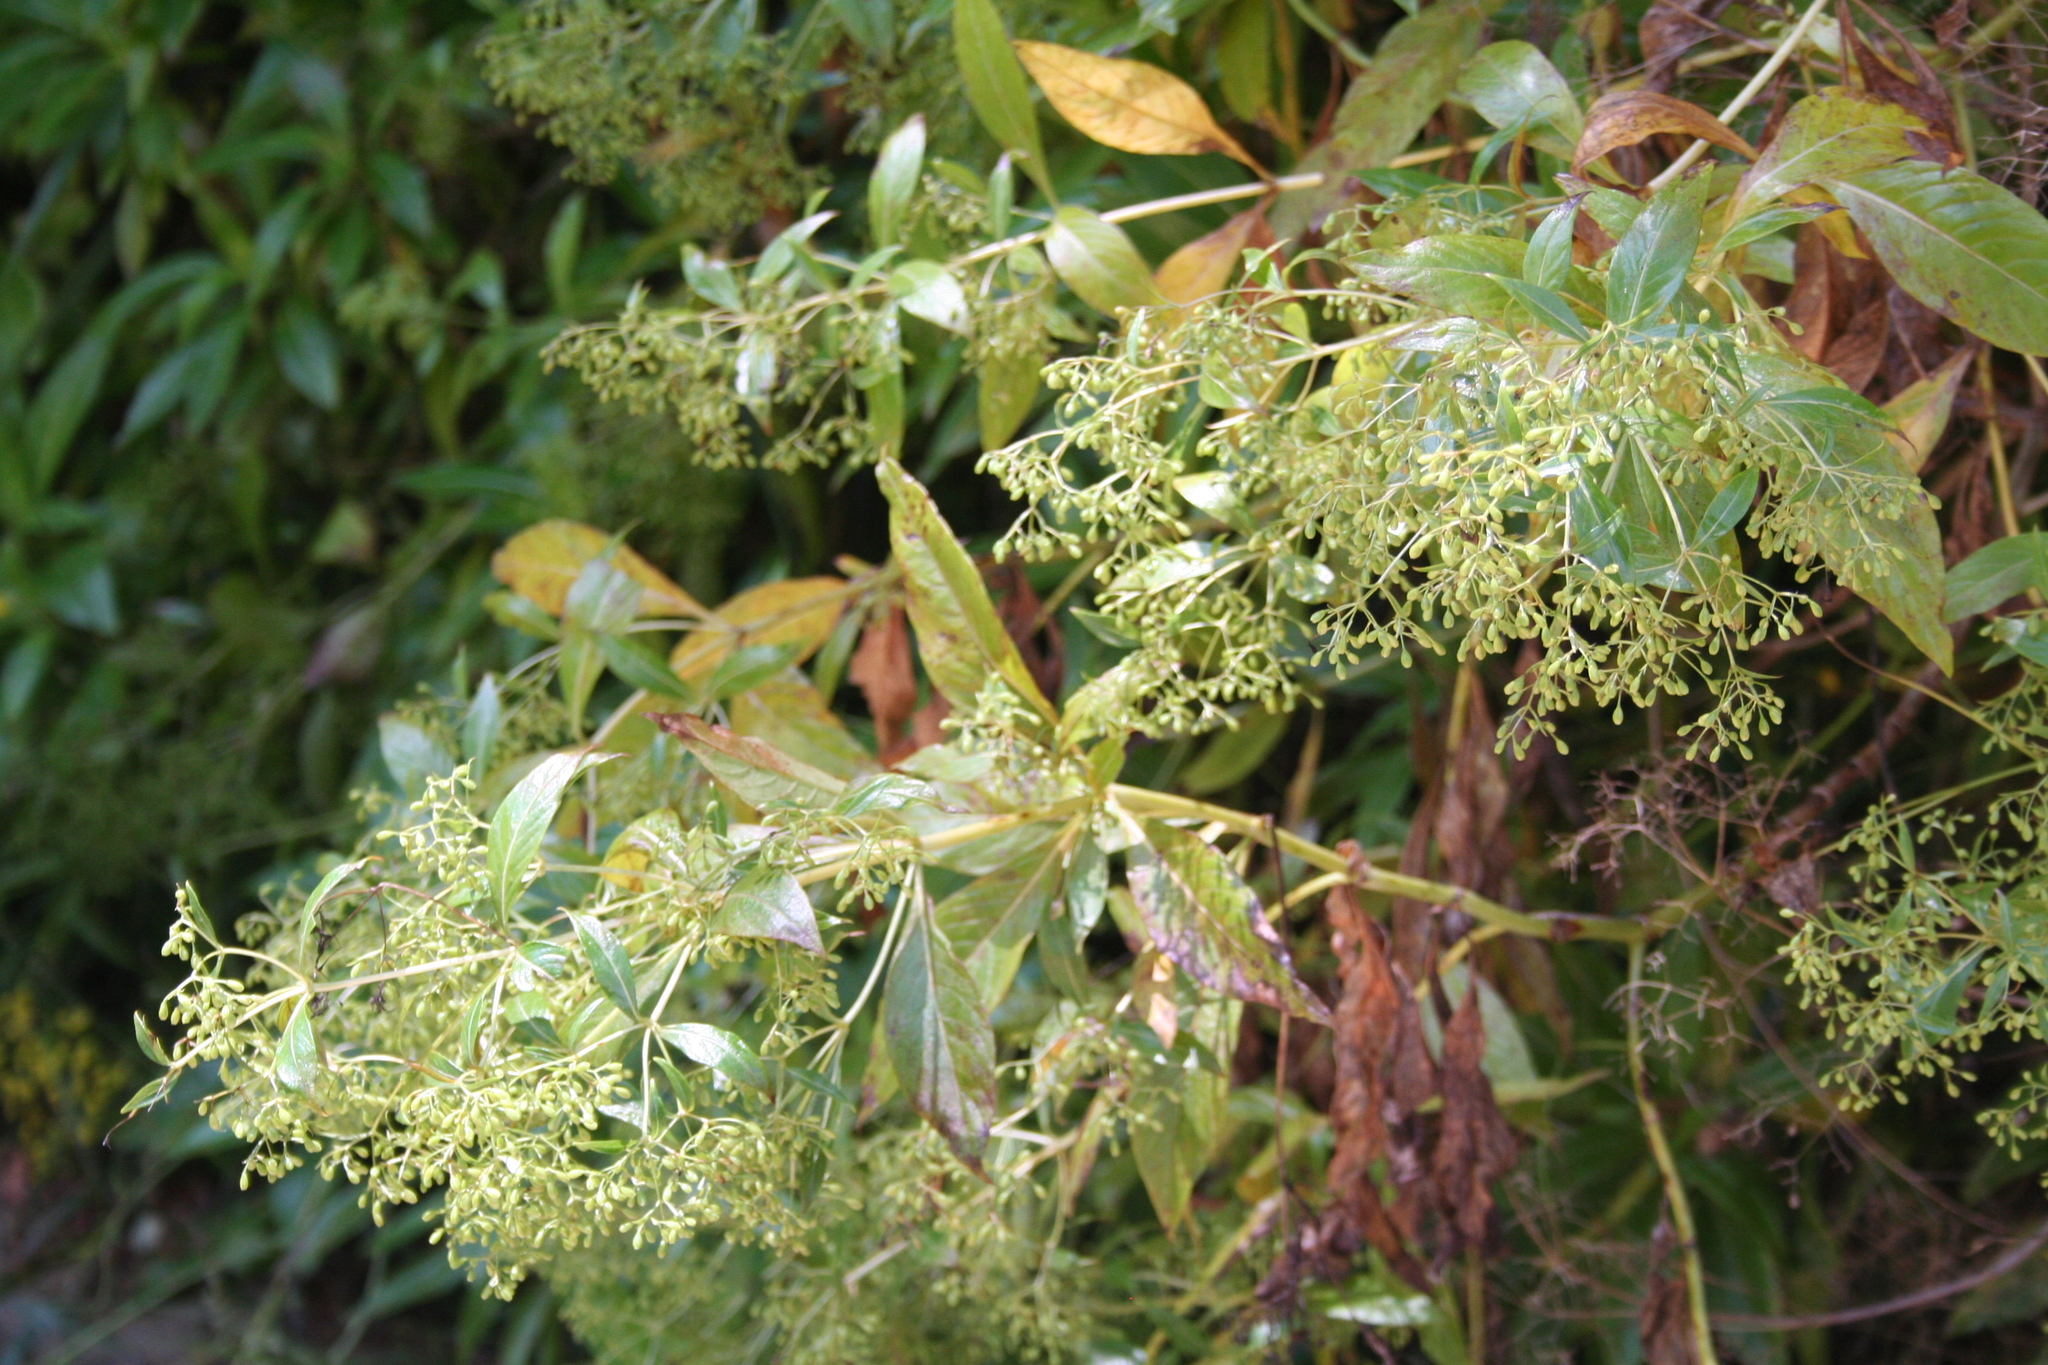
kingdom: Plantae
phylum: Tracheophyta
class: Magnoliopsida
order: Gentianales
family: Rubiaceae
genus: Phyllis
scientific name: Phyllis nobla
